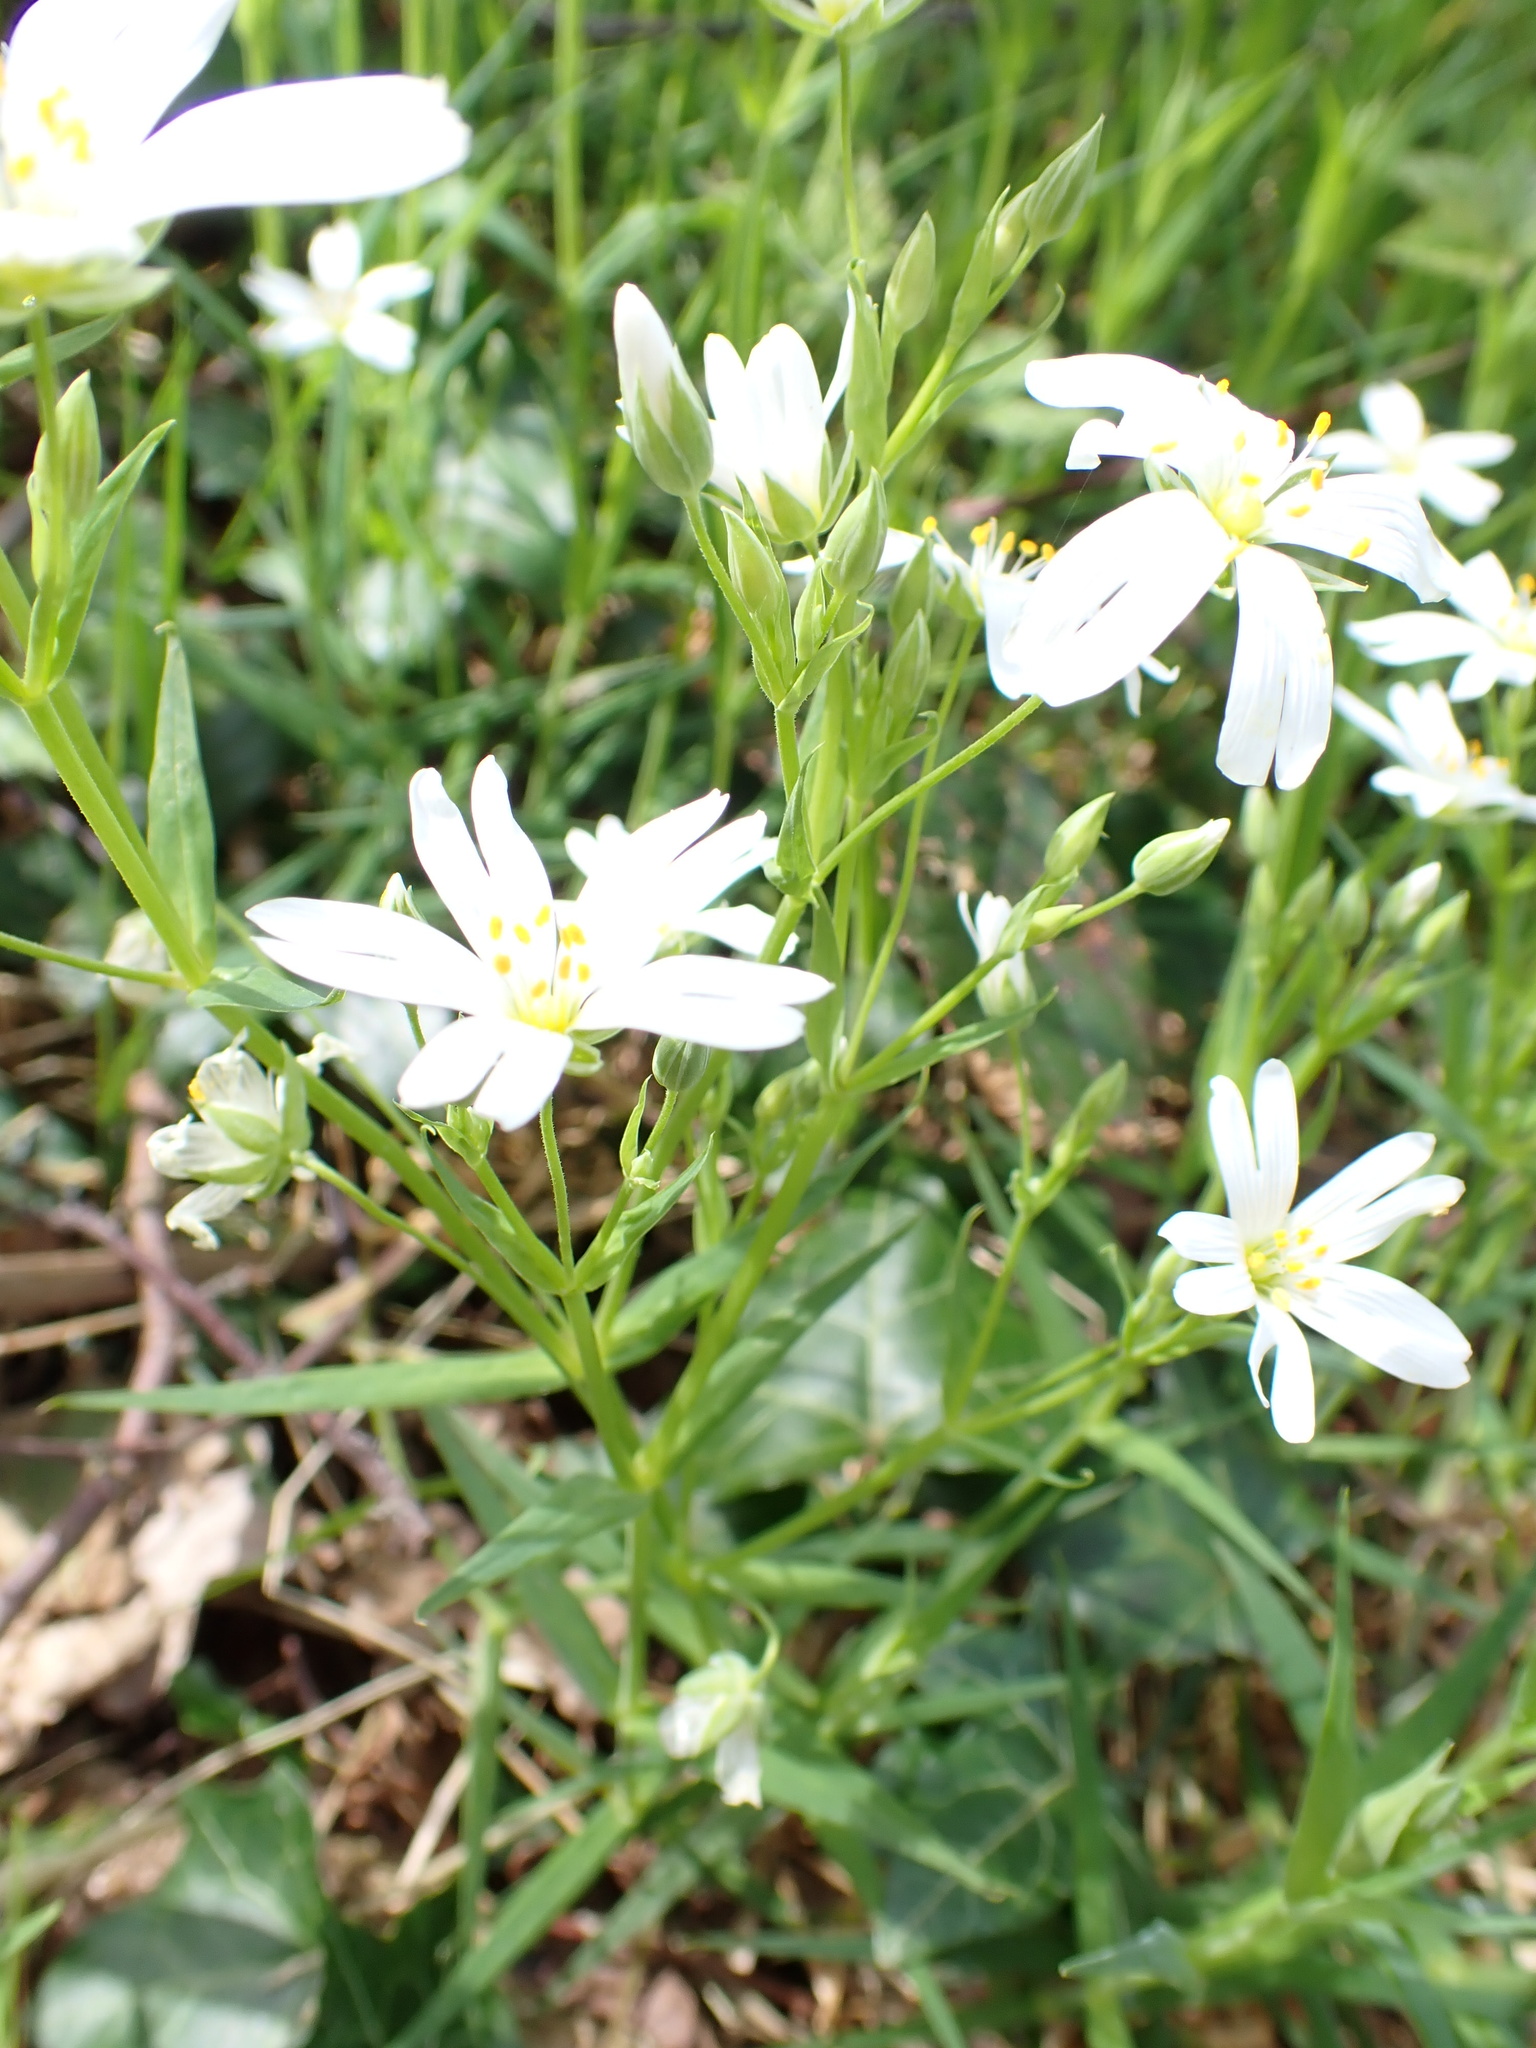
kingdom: Plantae
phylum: Tracheophyta
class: Magnoliopsida
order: Caryophyllales
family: Caryophyllaceae
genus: Rabelera
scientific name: Rabelera holostea
